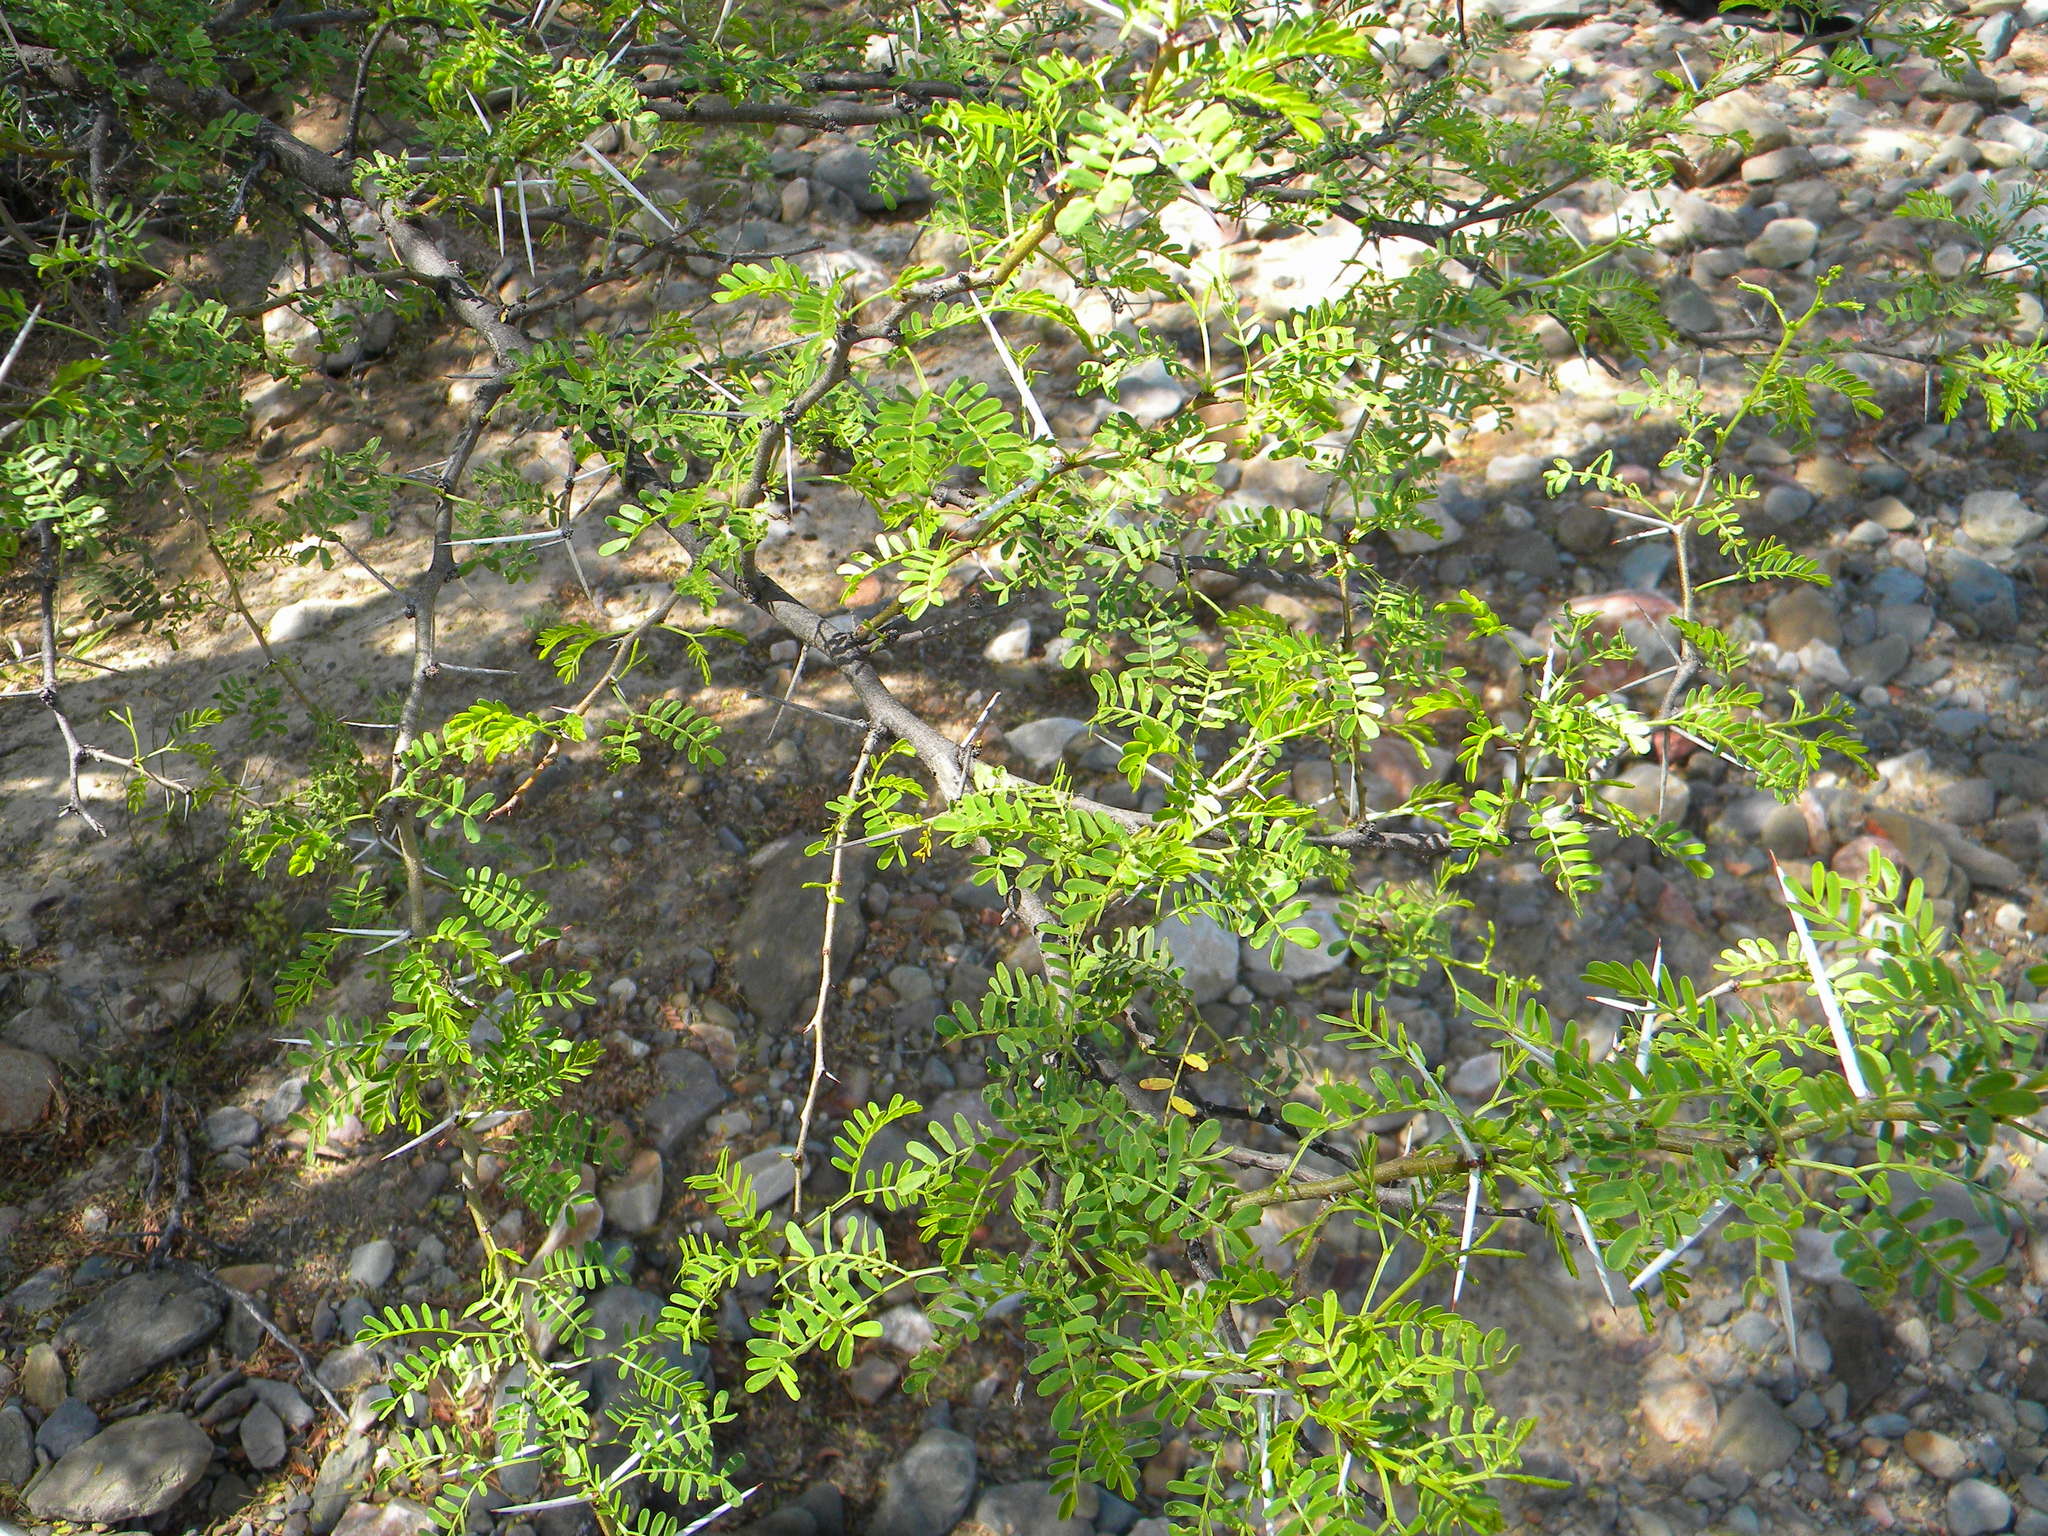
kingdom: Plantae
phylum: Tracheophyta
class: Magnoliopsida
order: Fabales
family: Fabaceae
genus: Vachellia
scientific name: Vachellia karroo
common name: Sweet thorn
